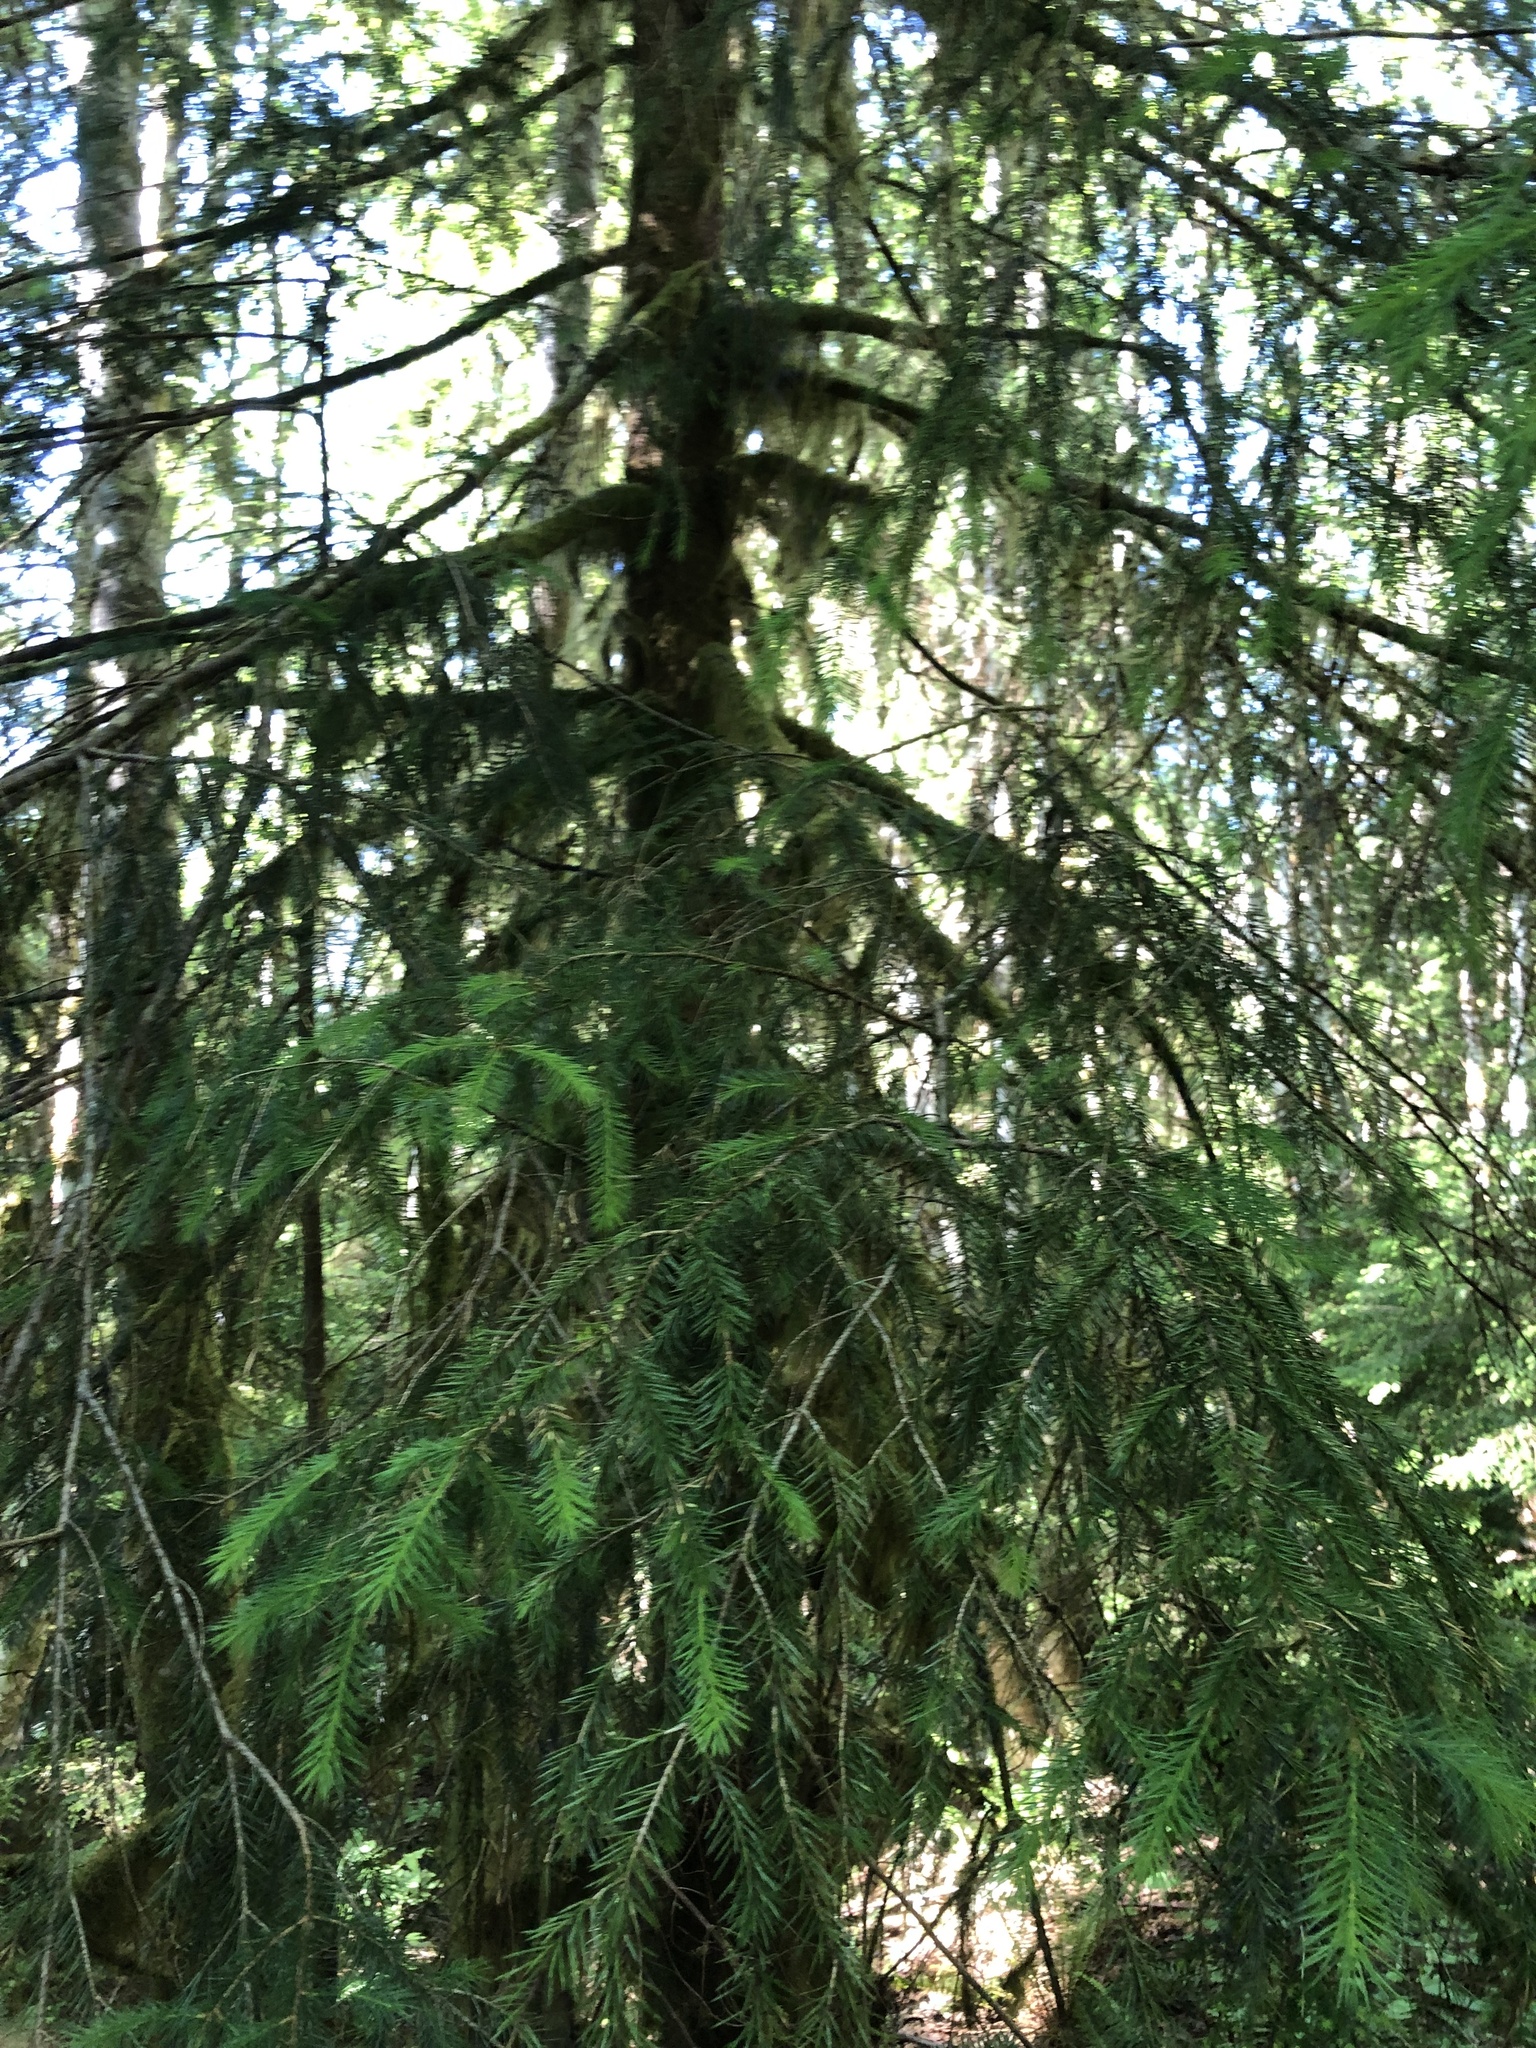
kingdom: Plantae
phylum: Tracheophyta
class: Pinopsida
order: Pinales
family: Pinaceae
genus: Picea
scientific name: Picea sitchensis
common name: Sitka spruce
